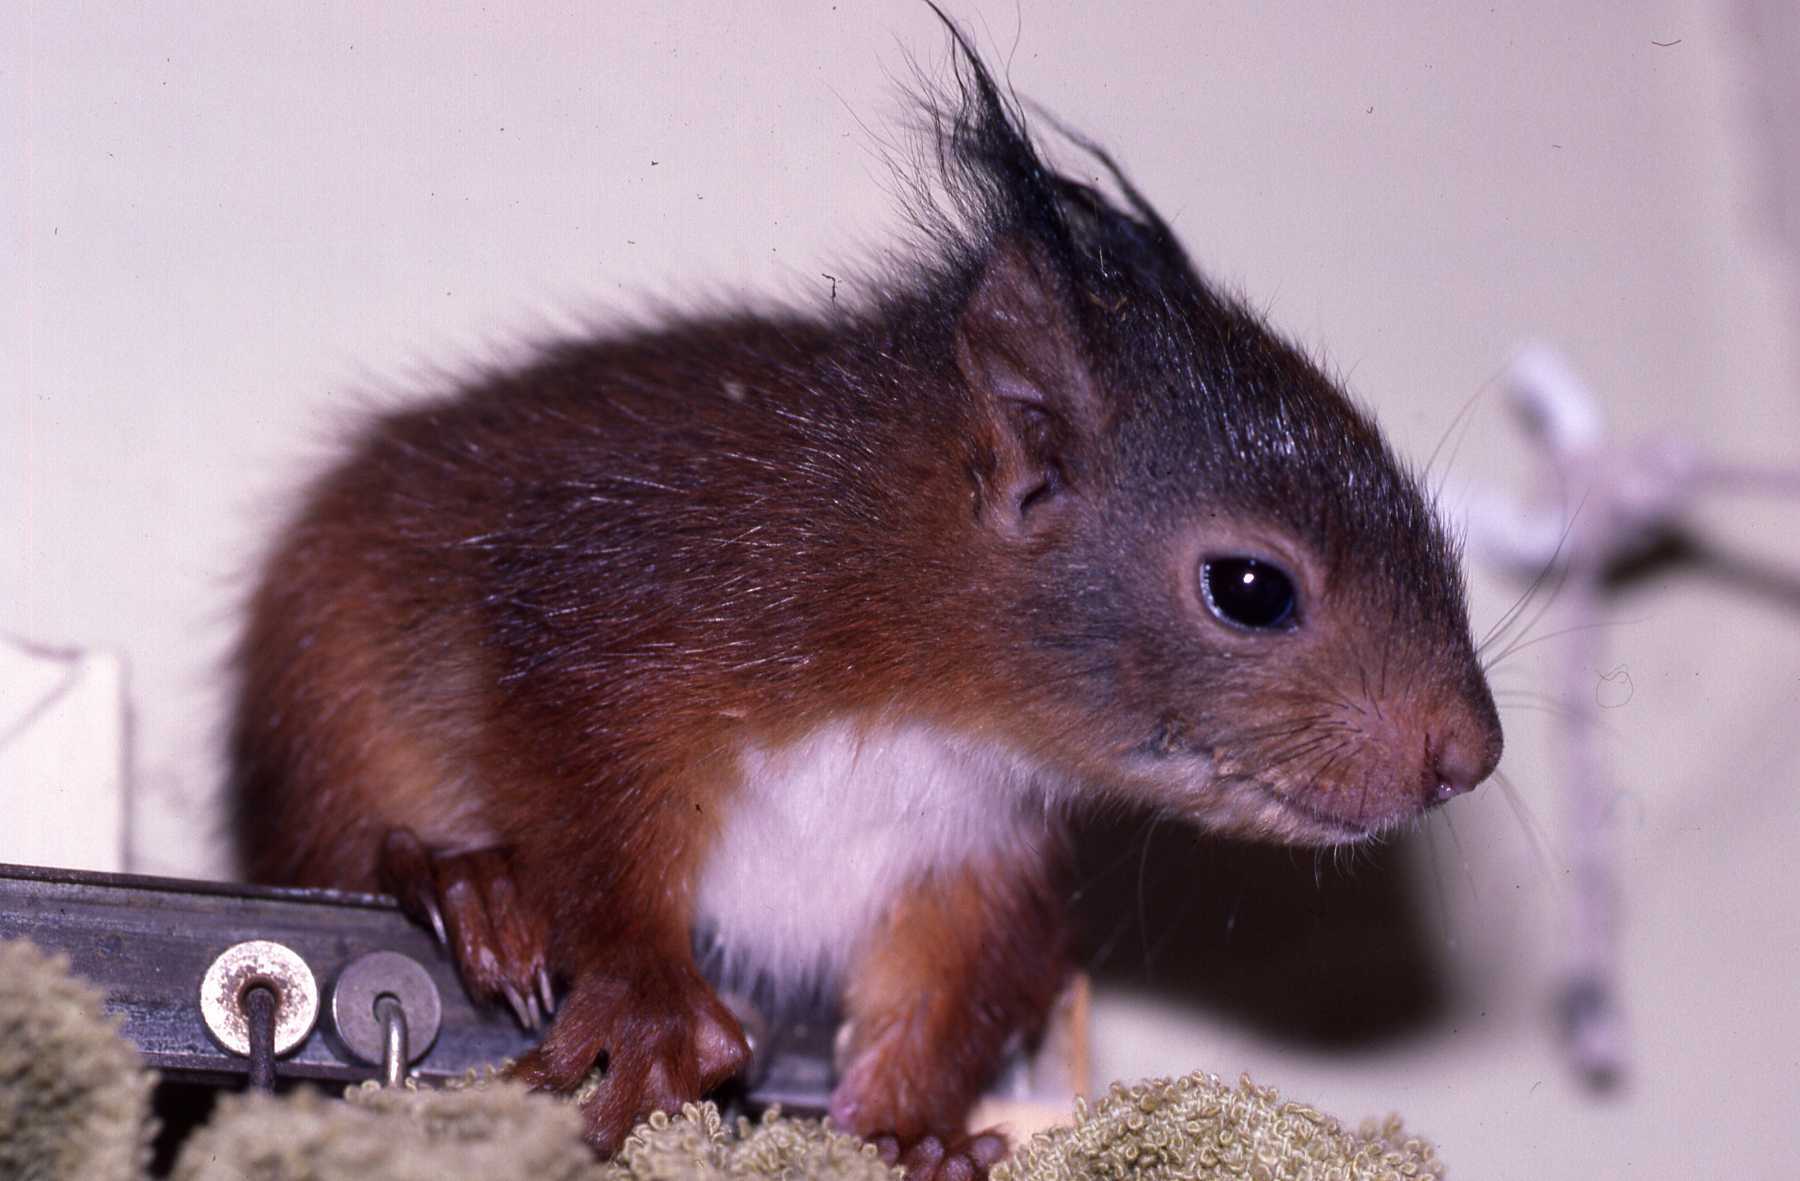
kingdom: Animalia
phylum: Chordata
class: Mammalia
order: Rodentia
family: Sciuridae
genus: Sciurus
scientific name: Sciurus vulgaris
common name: Eurasian red squirrel
